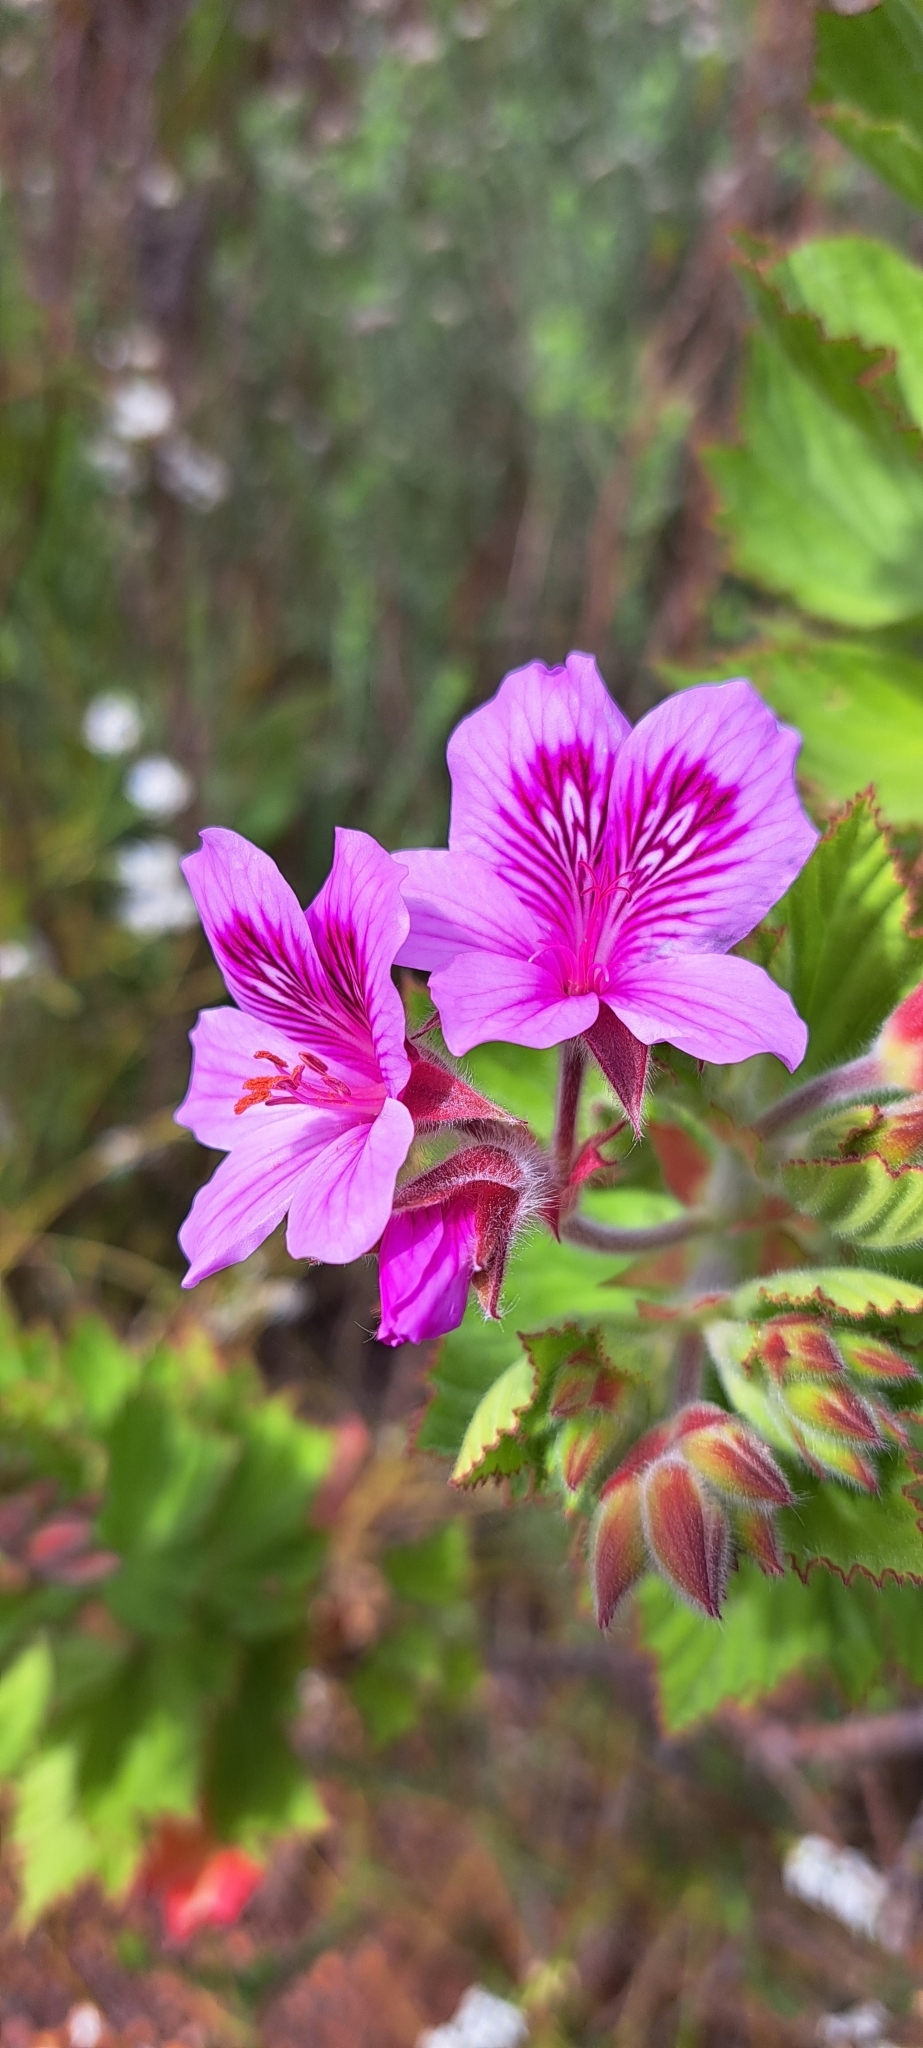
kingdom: Plantae
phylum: Tracheophyta
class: Magnoliopsida
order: Geraniales
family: Geraniaceae
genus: Pelargonium
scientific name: Pelargonium cucullatum
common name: Tree pelargonium
